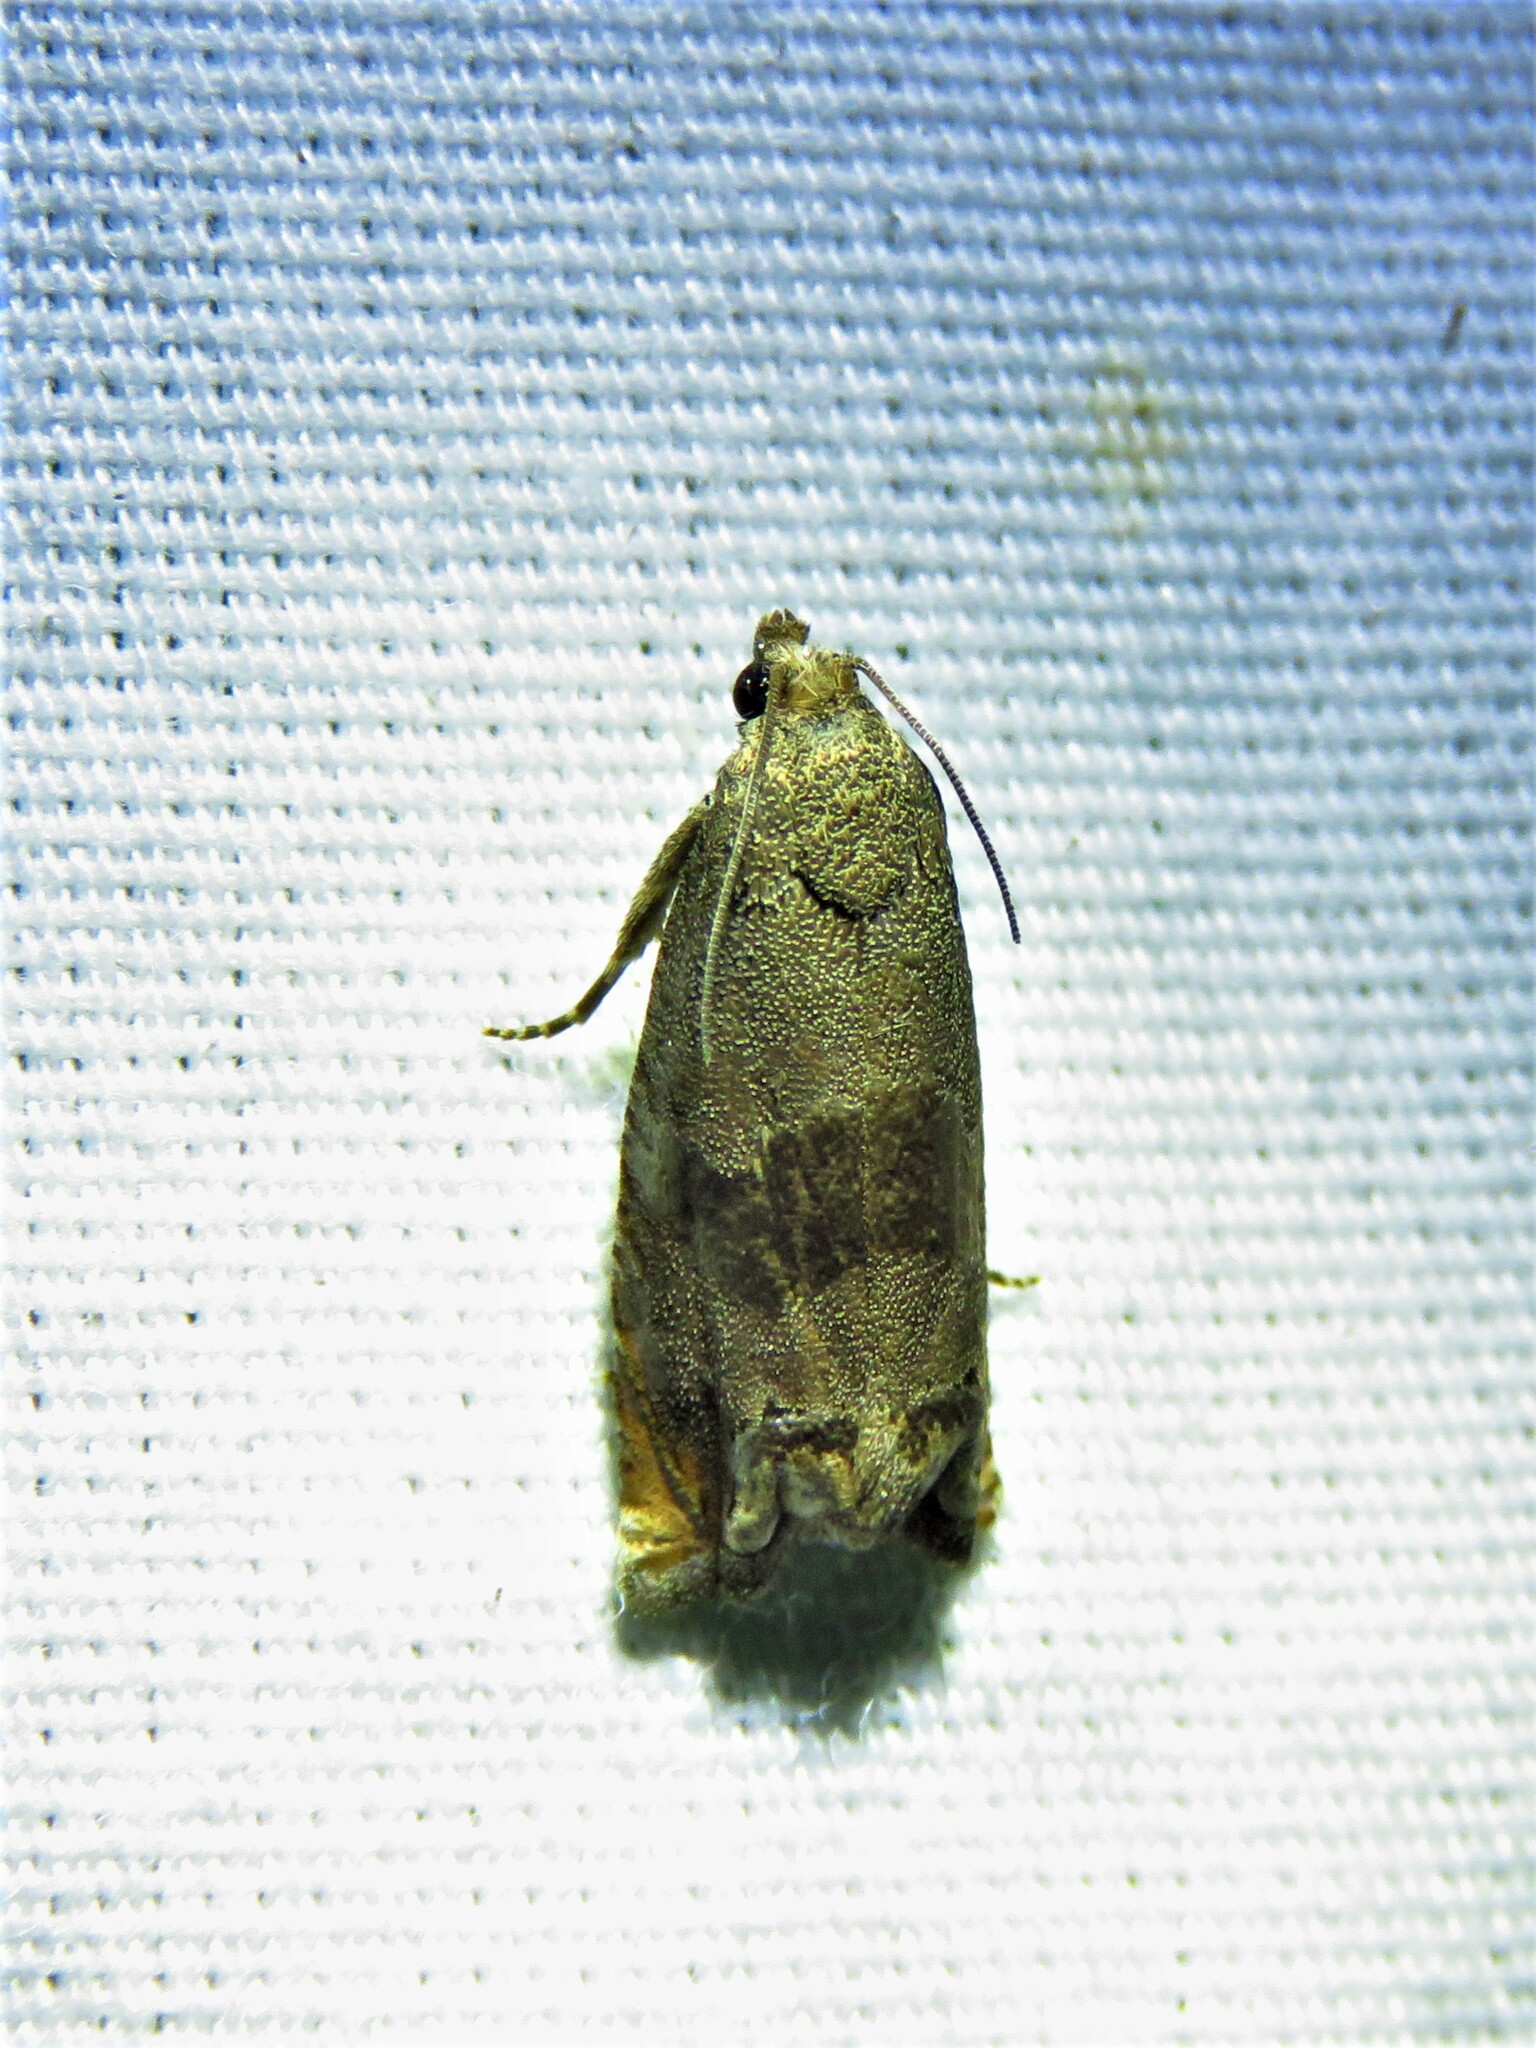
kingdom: Animalia
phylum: Arthropoda
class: Insecta
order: Lepidoptera
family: Tortricidae
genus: Epiblema
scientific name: Epiblema strenuana
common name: Ragweed borer moth
